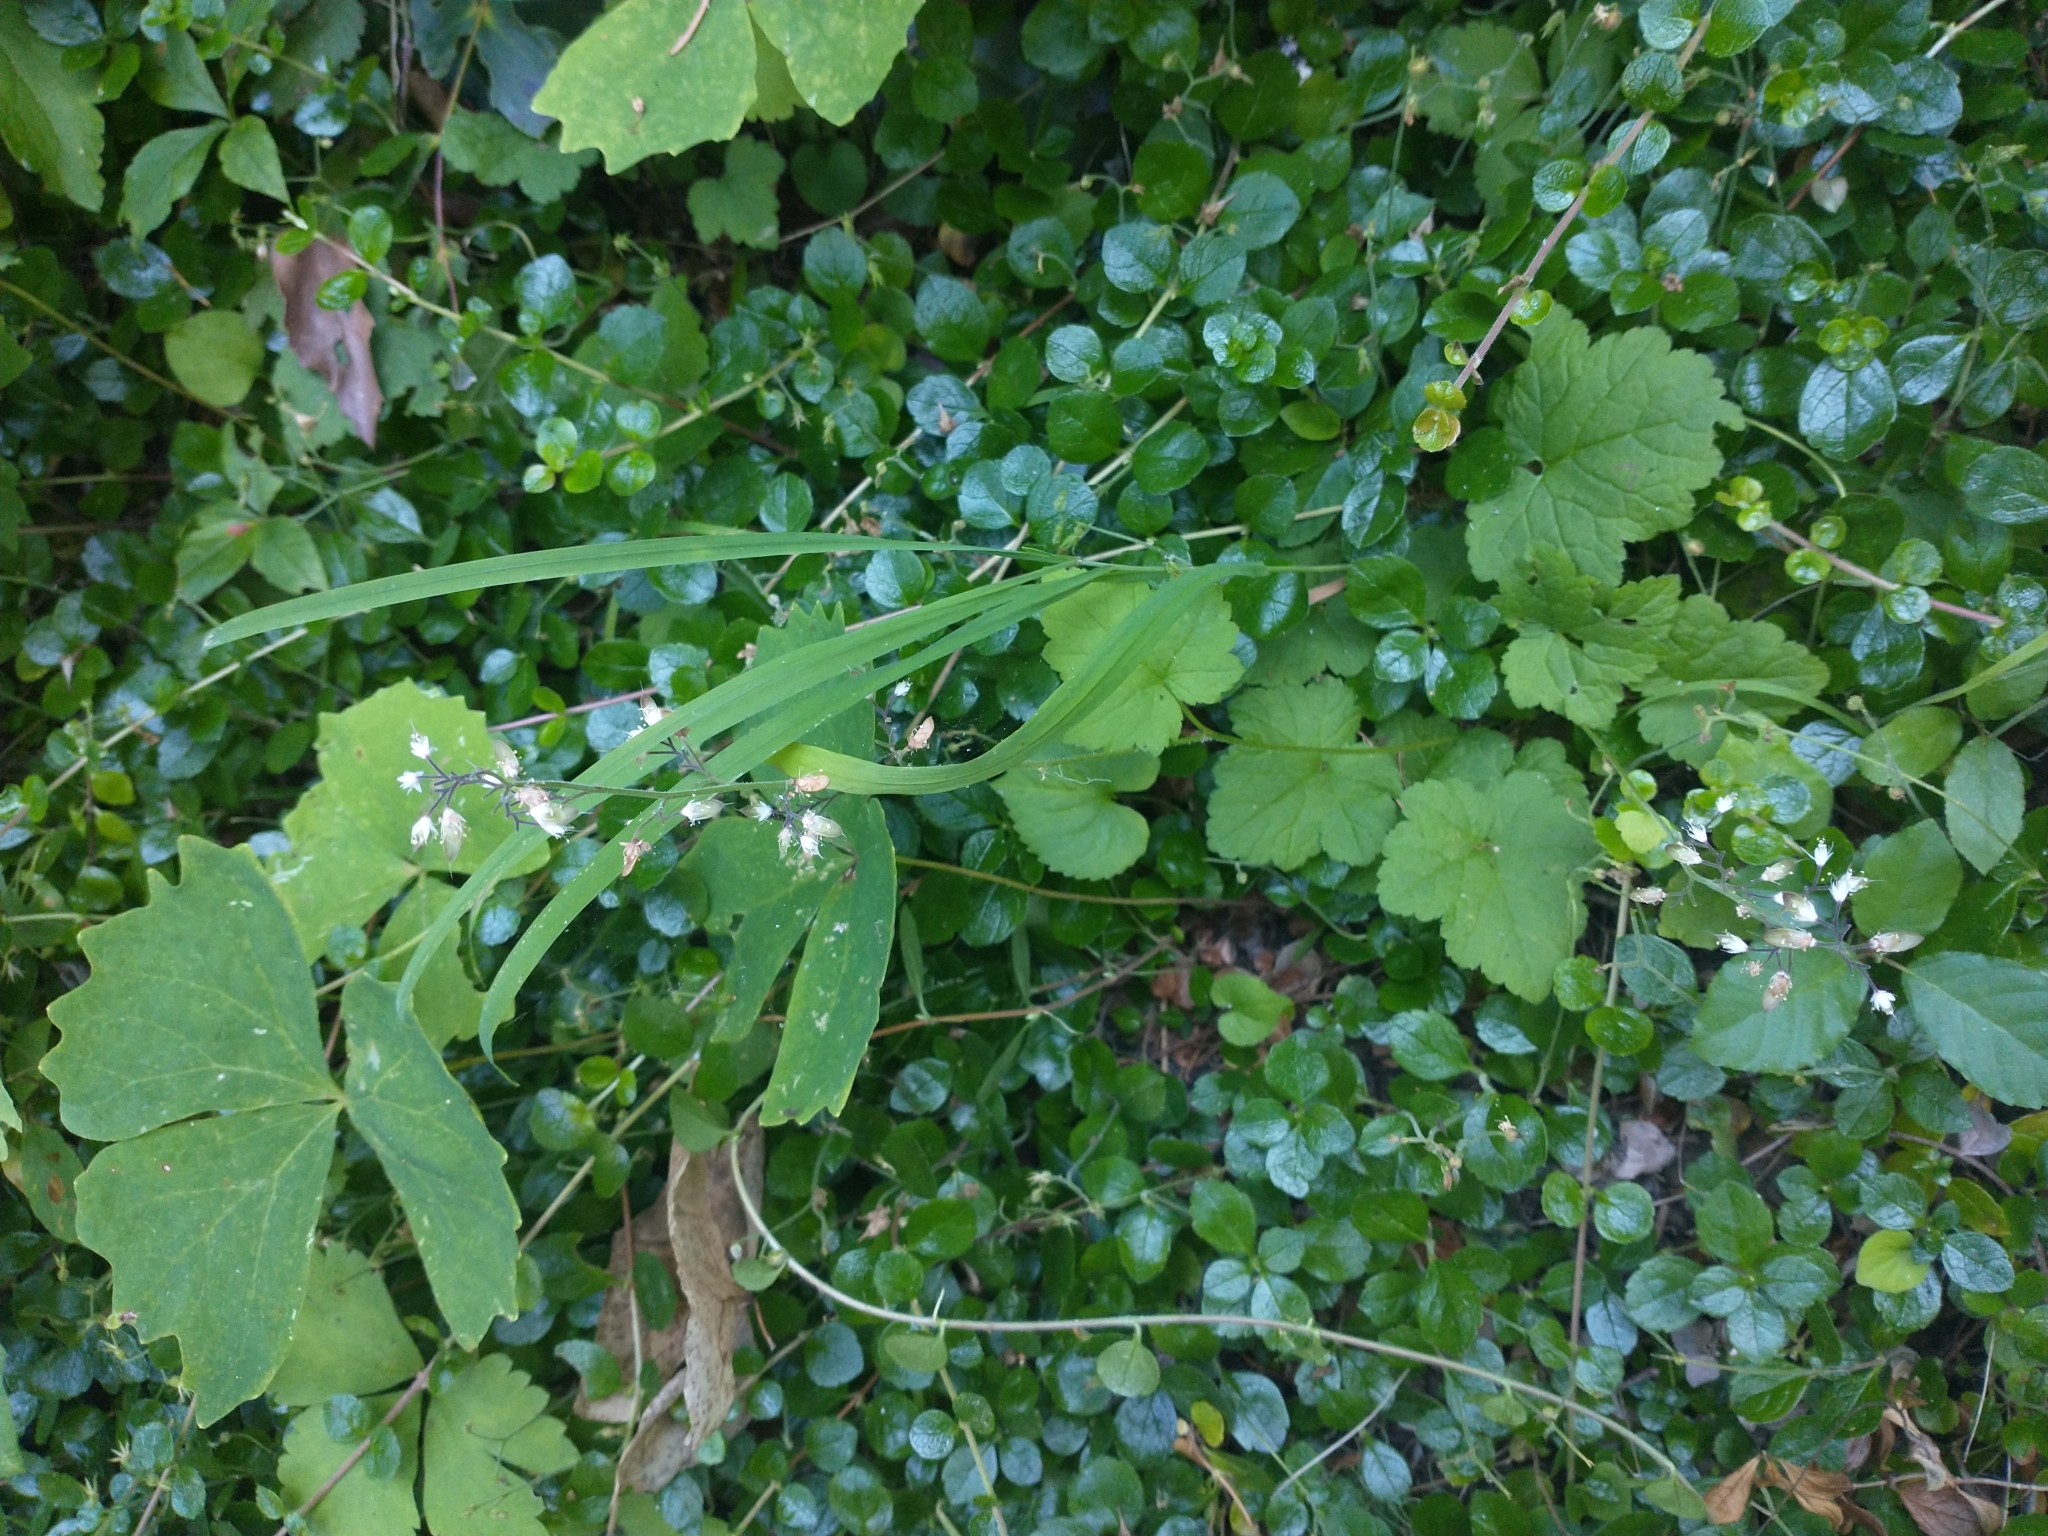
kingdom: Plantae
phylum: Tracheophyta
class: Magnoliopsida
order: Saxifragales
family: Saxifragaceae
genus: Tiarella
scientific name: Tiarella trifoliata
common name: Sugar-scoop
